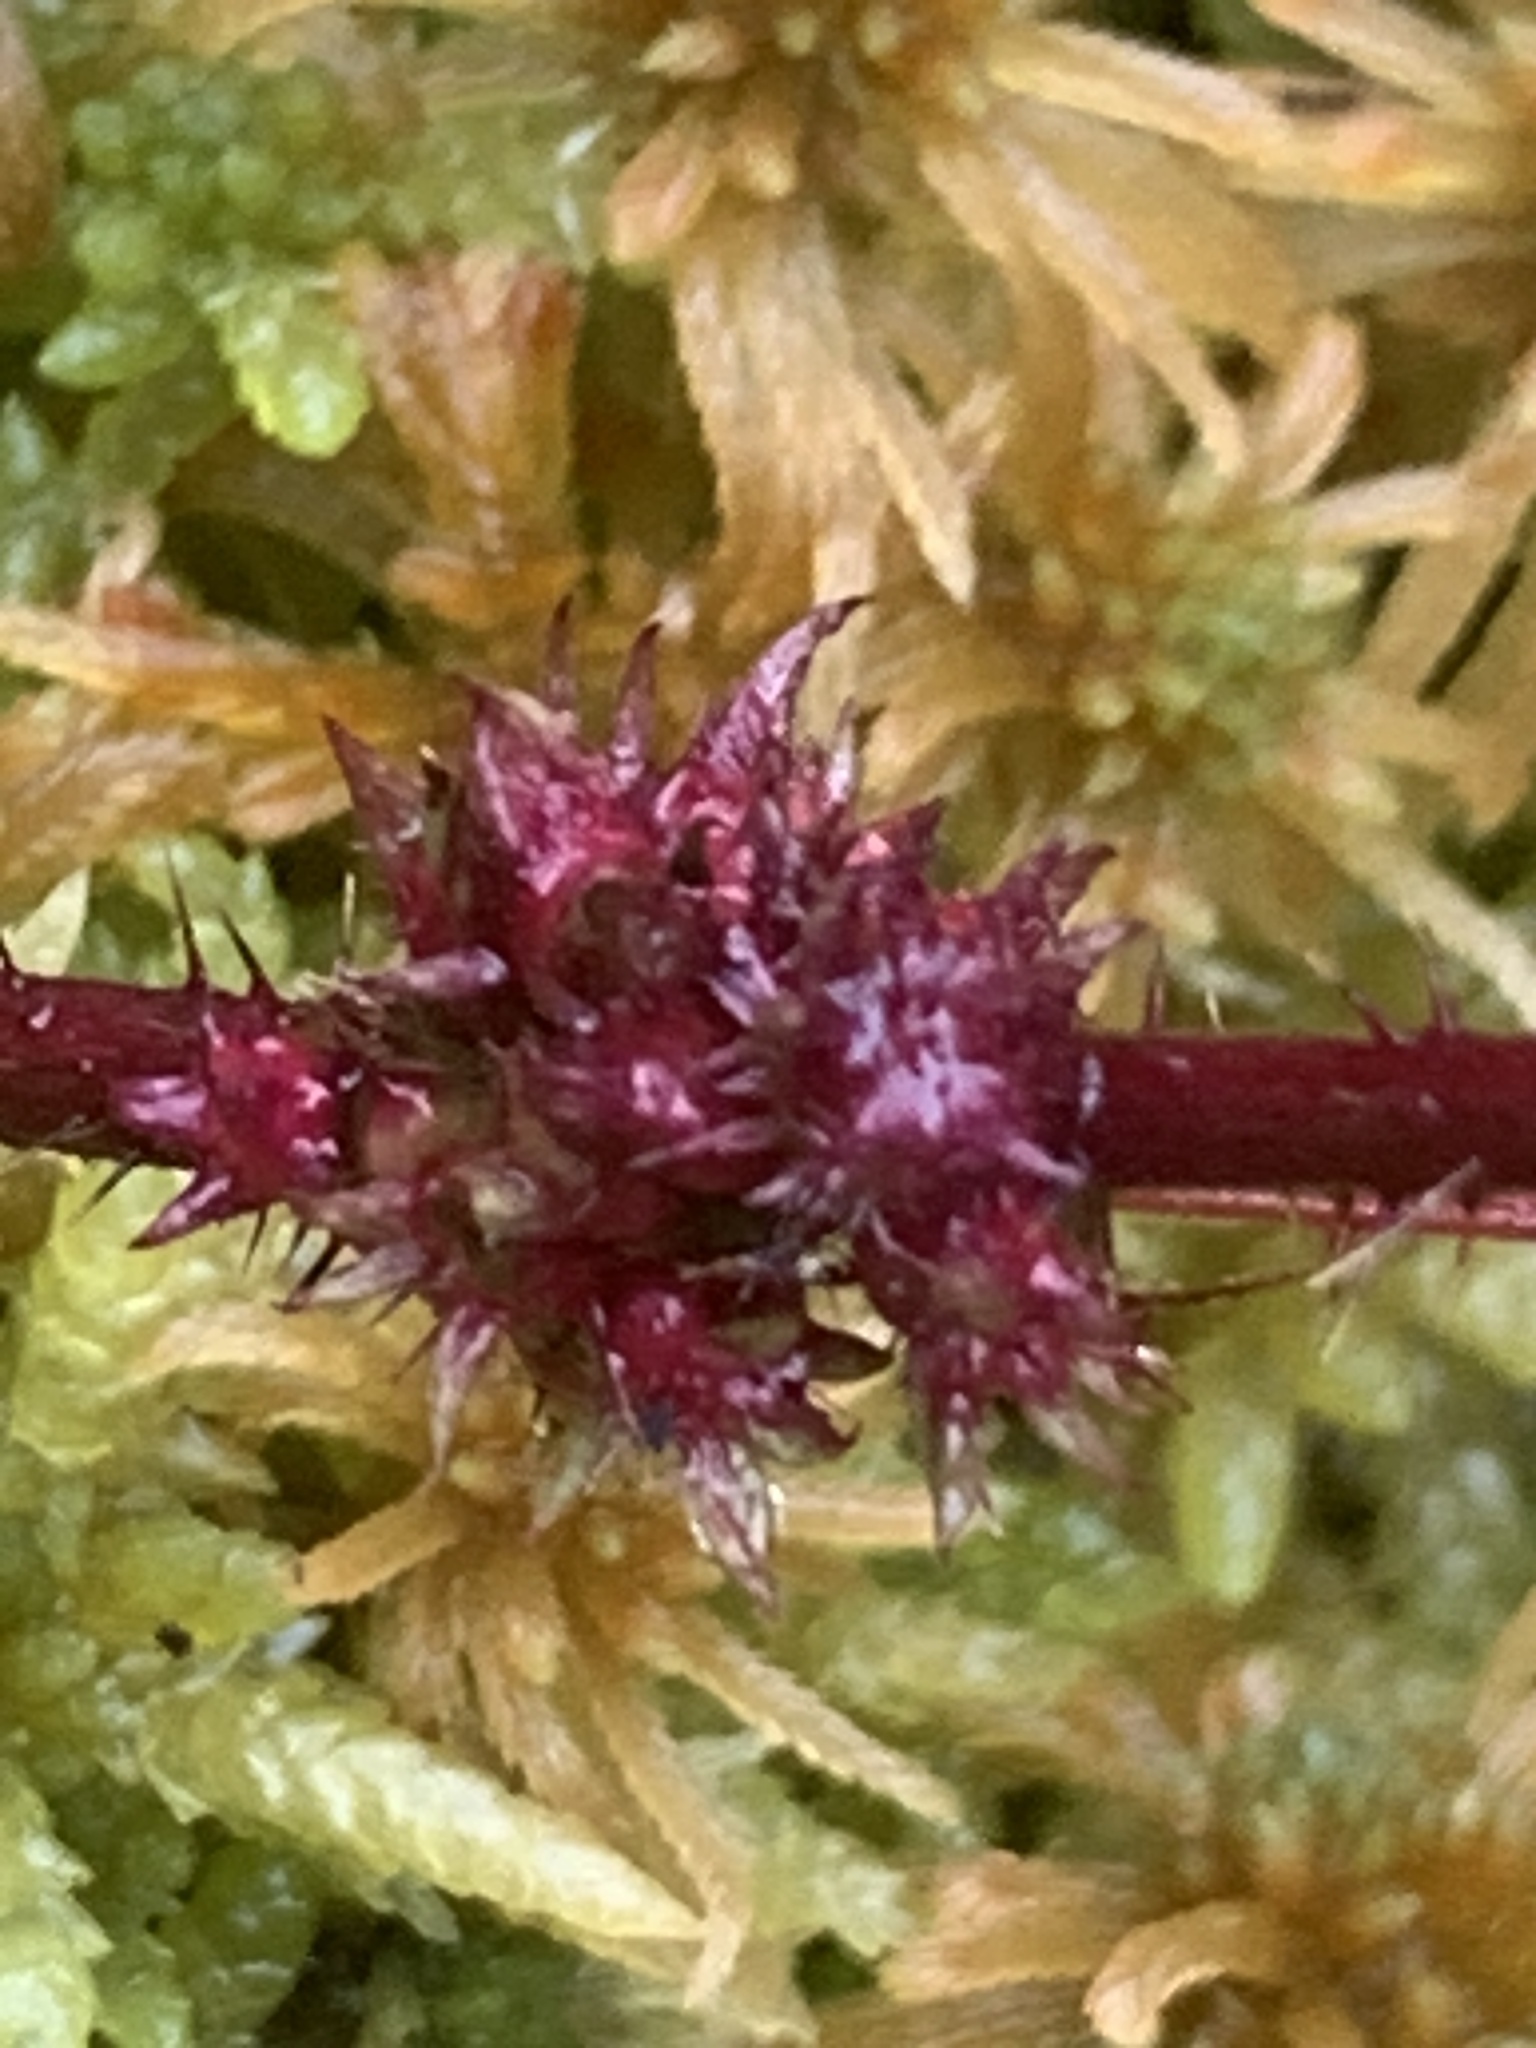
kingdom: Animalia
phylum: Arthropoda
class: Insecta
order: Hymenoptera
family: Cynipidae
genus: Diastrophus
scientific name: Diastrophus
